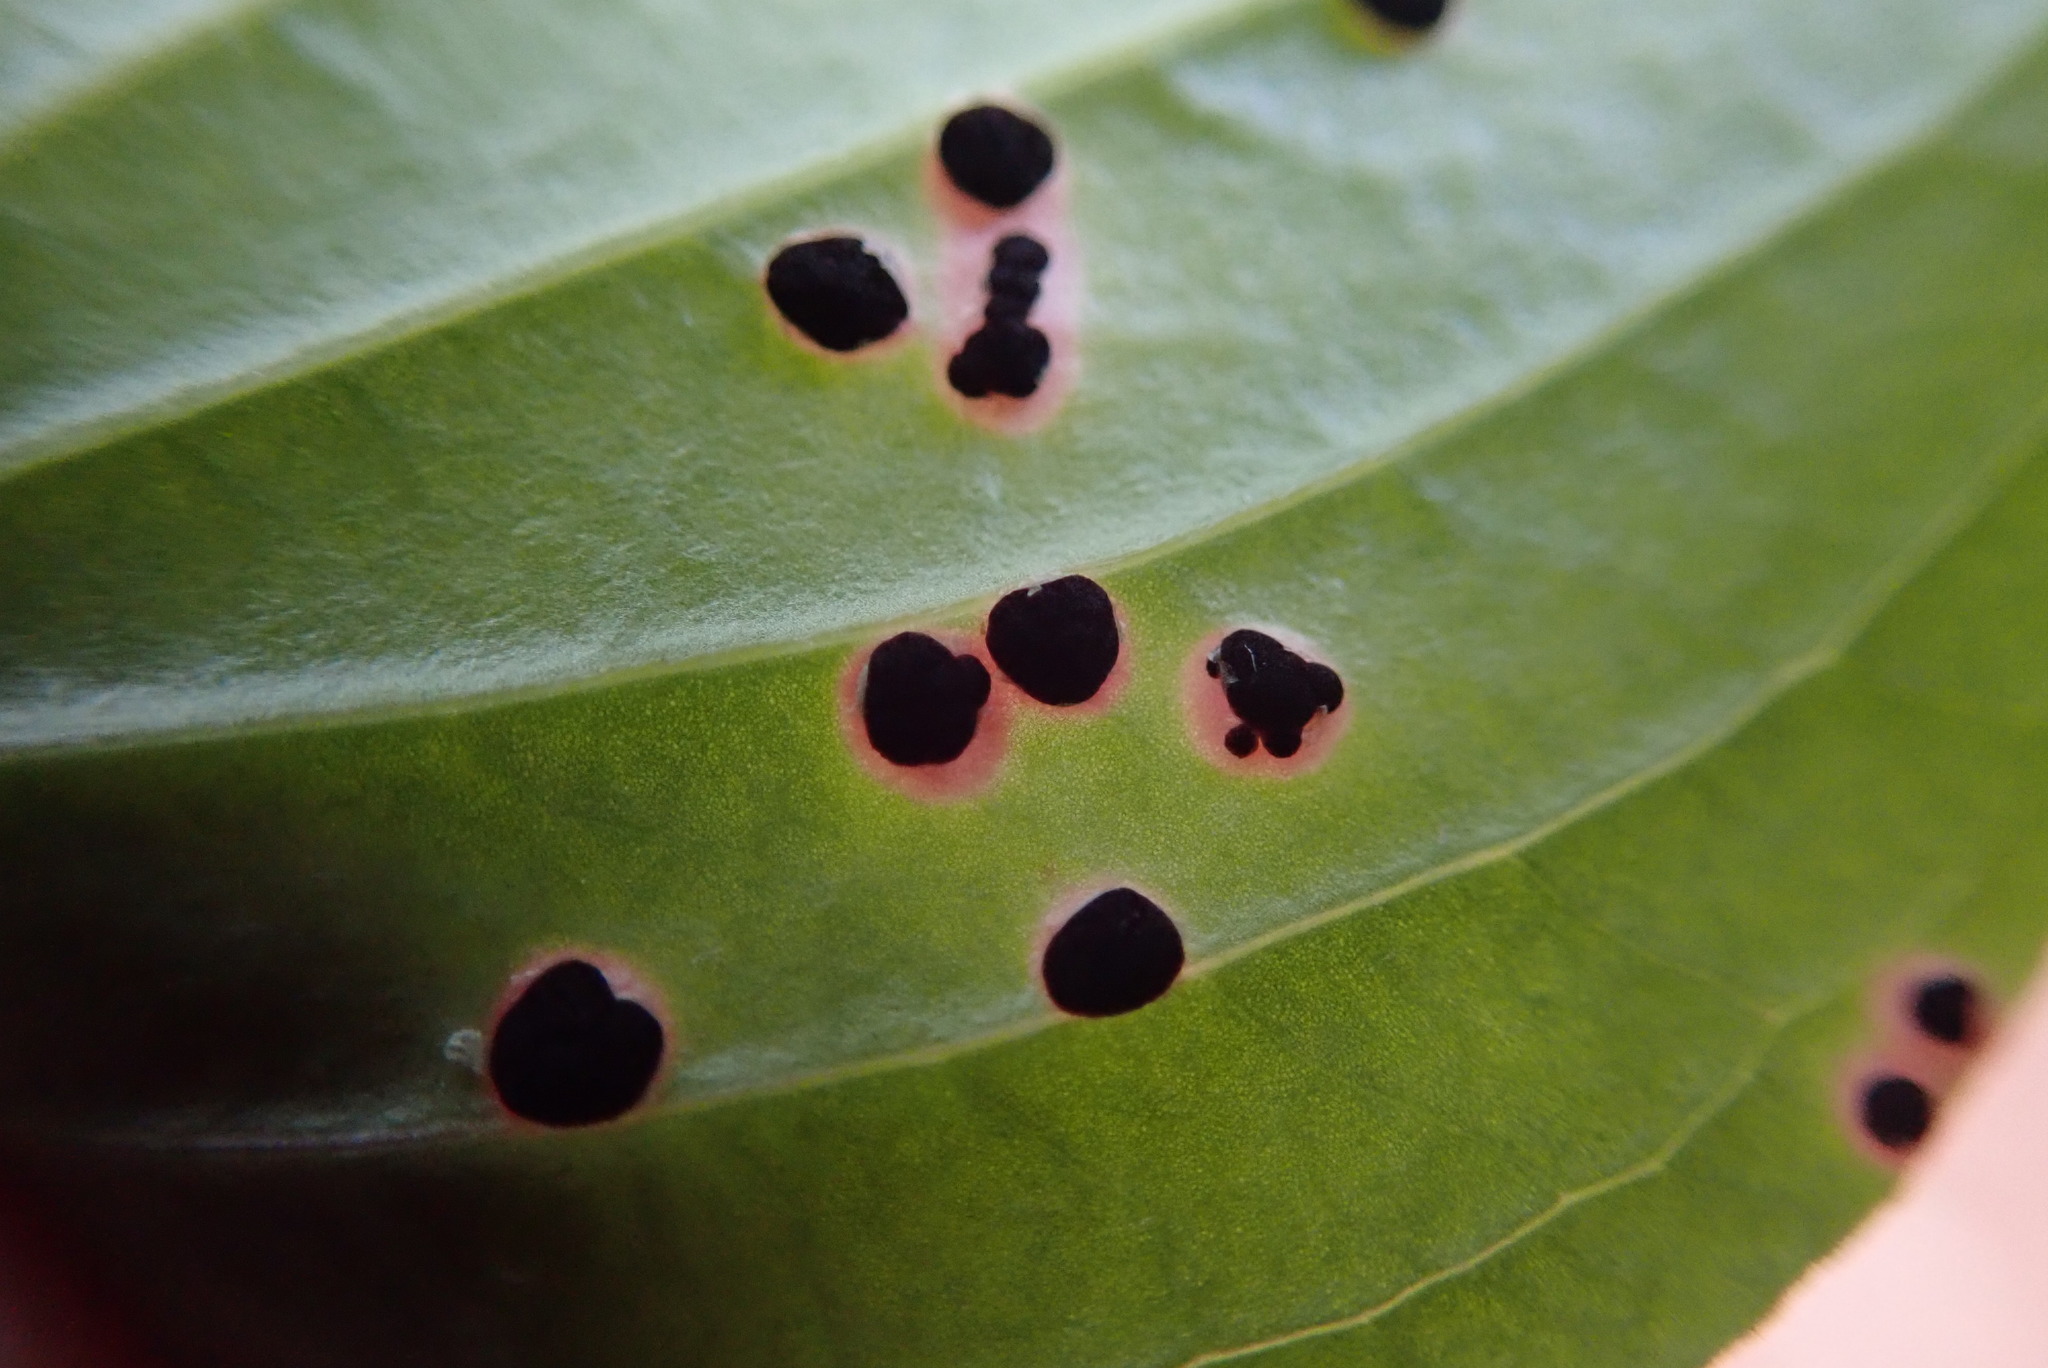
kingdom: Fungi
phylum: Basidiomycota
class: Pucciniomycetes
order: Pucciniales
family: Pucciniaceae
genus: Puccinia
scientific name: Puccinia porphyrogenita
